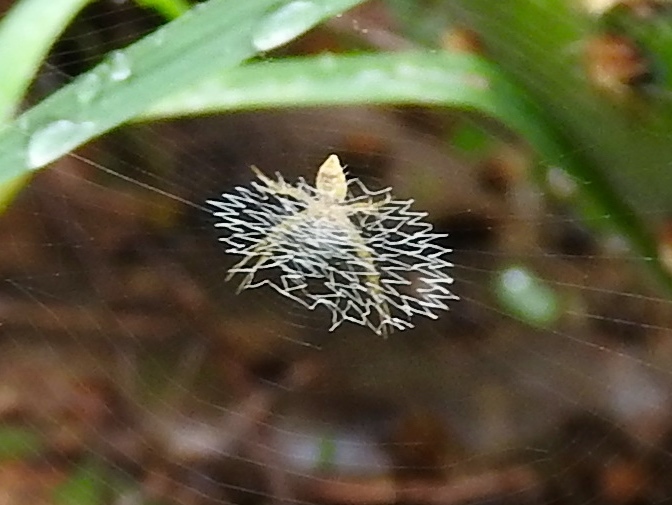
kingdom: Animalia
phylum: Arthropoda
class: Arachnida
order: Araneae
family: Araneidae
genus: Argiope
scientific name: Argiope
